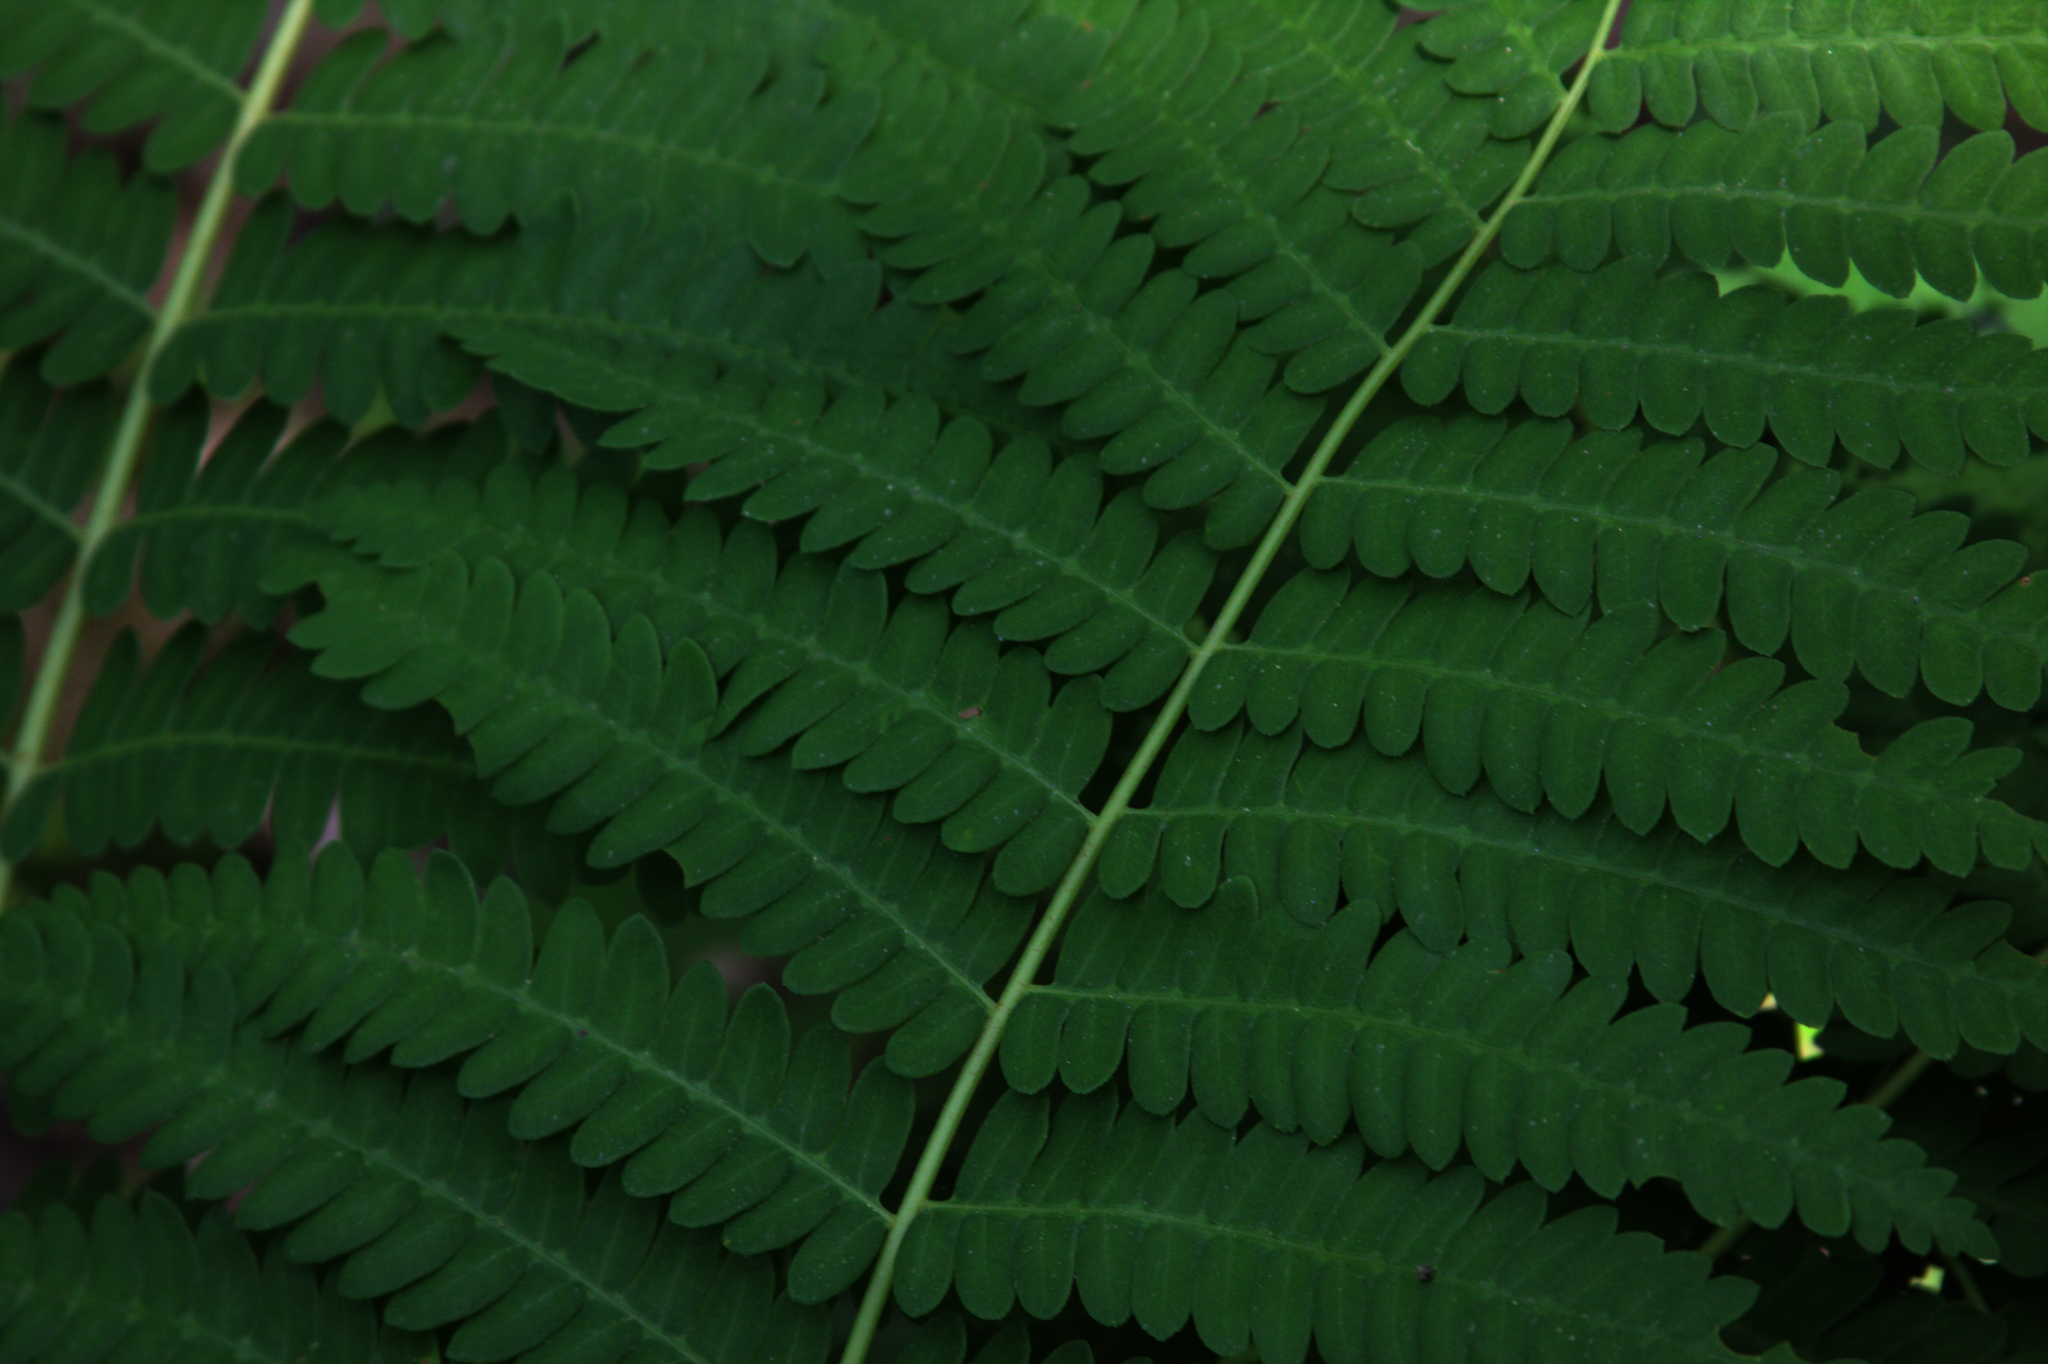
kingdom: Plantae
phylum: Tracheophyta
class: Polypodiopsida
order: Osmundales
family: Osmundaceae
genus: Claytosmunda
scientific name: Claytosmunda claytoniana
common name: Clayton's fern
